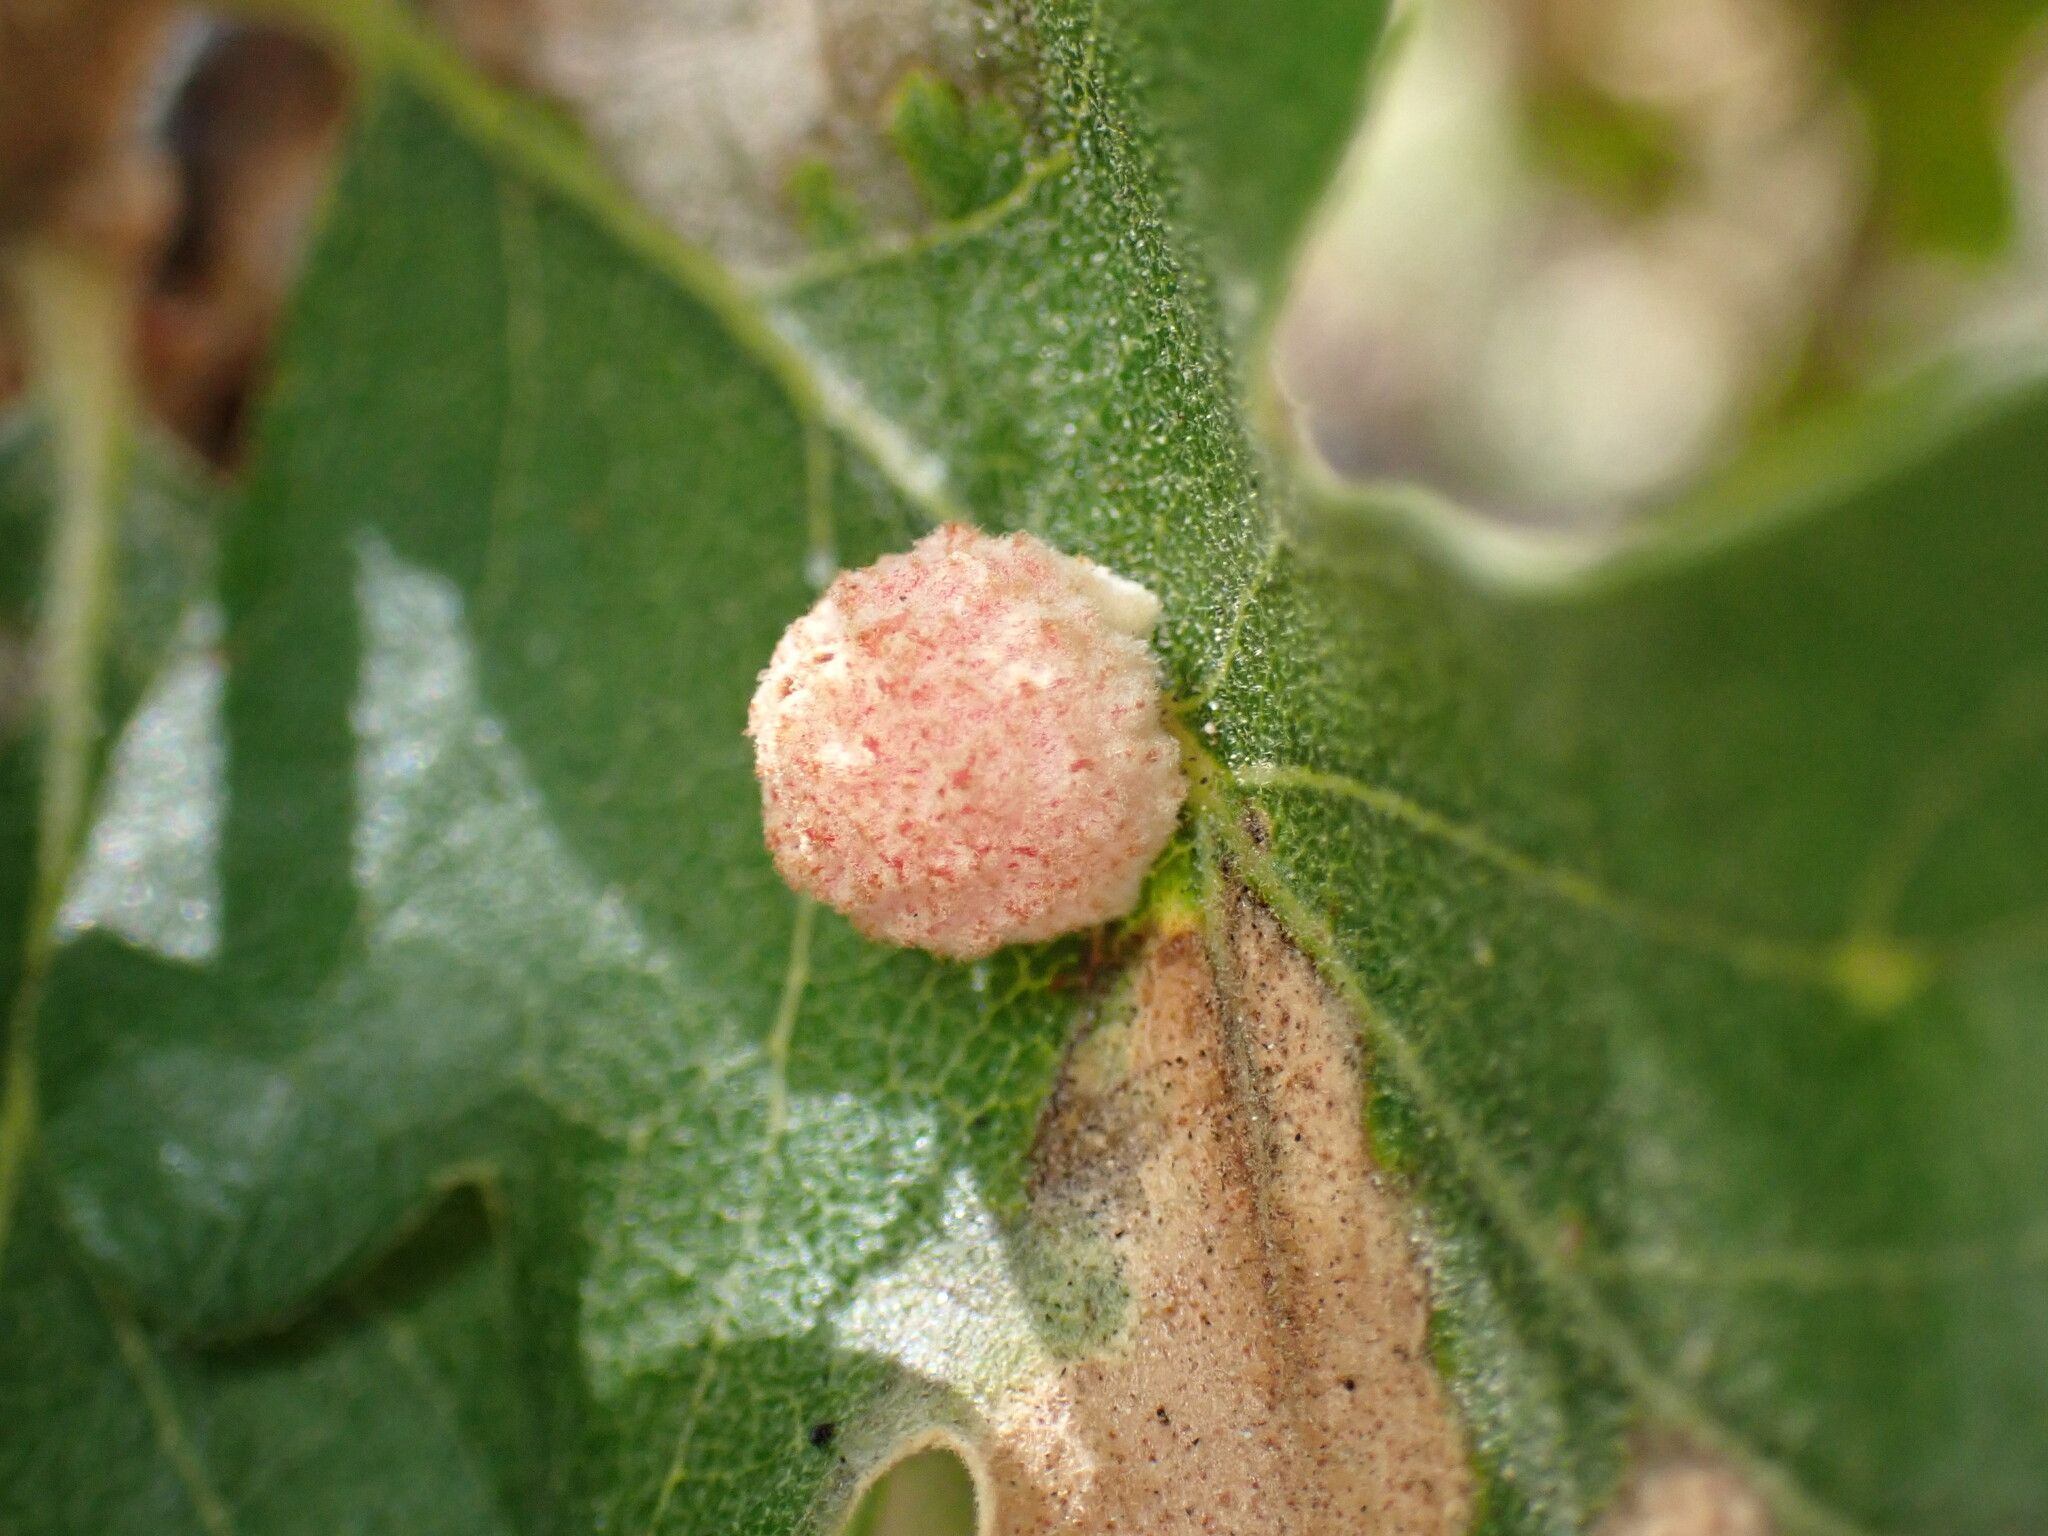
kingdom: Animalia
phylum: Arthropoda
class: Insecta
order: Hymenoptera
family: Cynipidae
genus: Cynips
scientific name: Cynips conspicua
